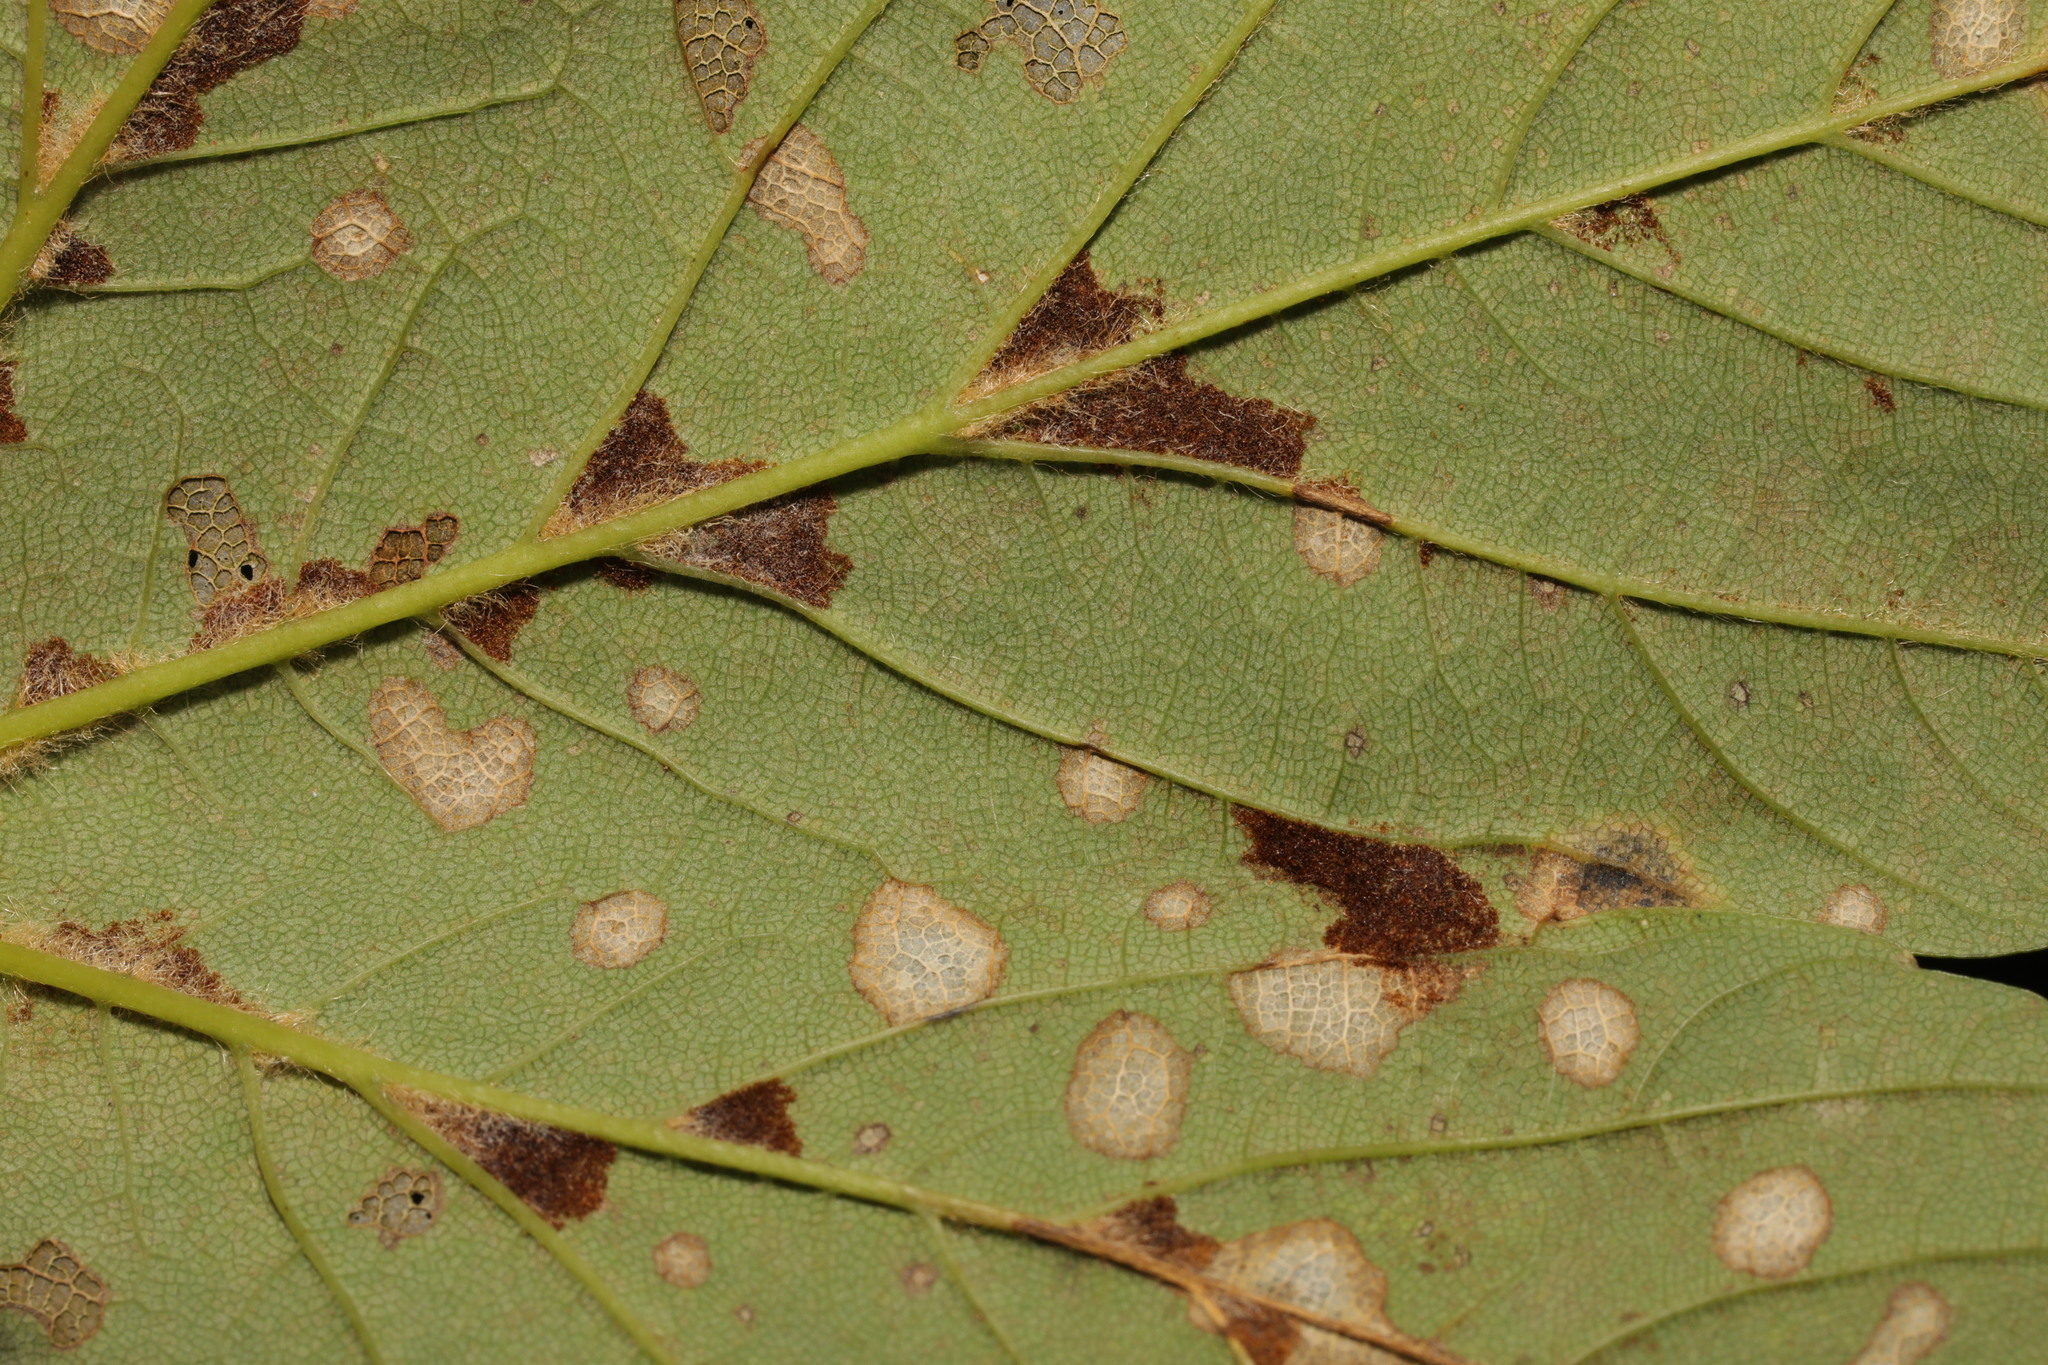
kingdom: Animalia
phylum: Arthropoda
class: Arachnida
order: Trombidiformes
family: Eriophyidae
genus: Aceria
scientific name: Aceria pseudoplatani
